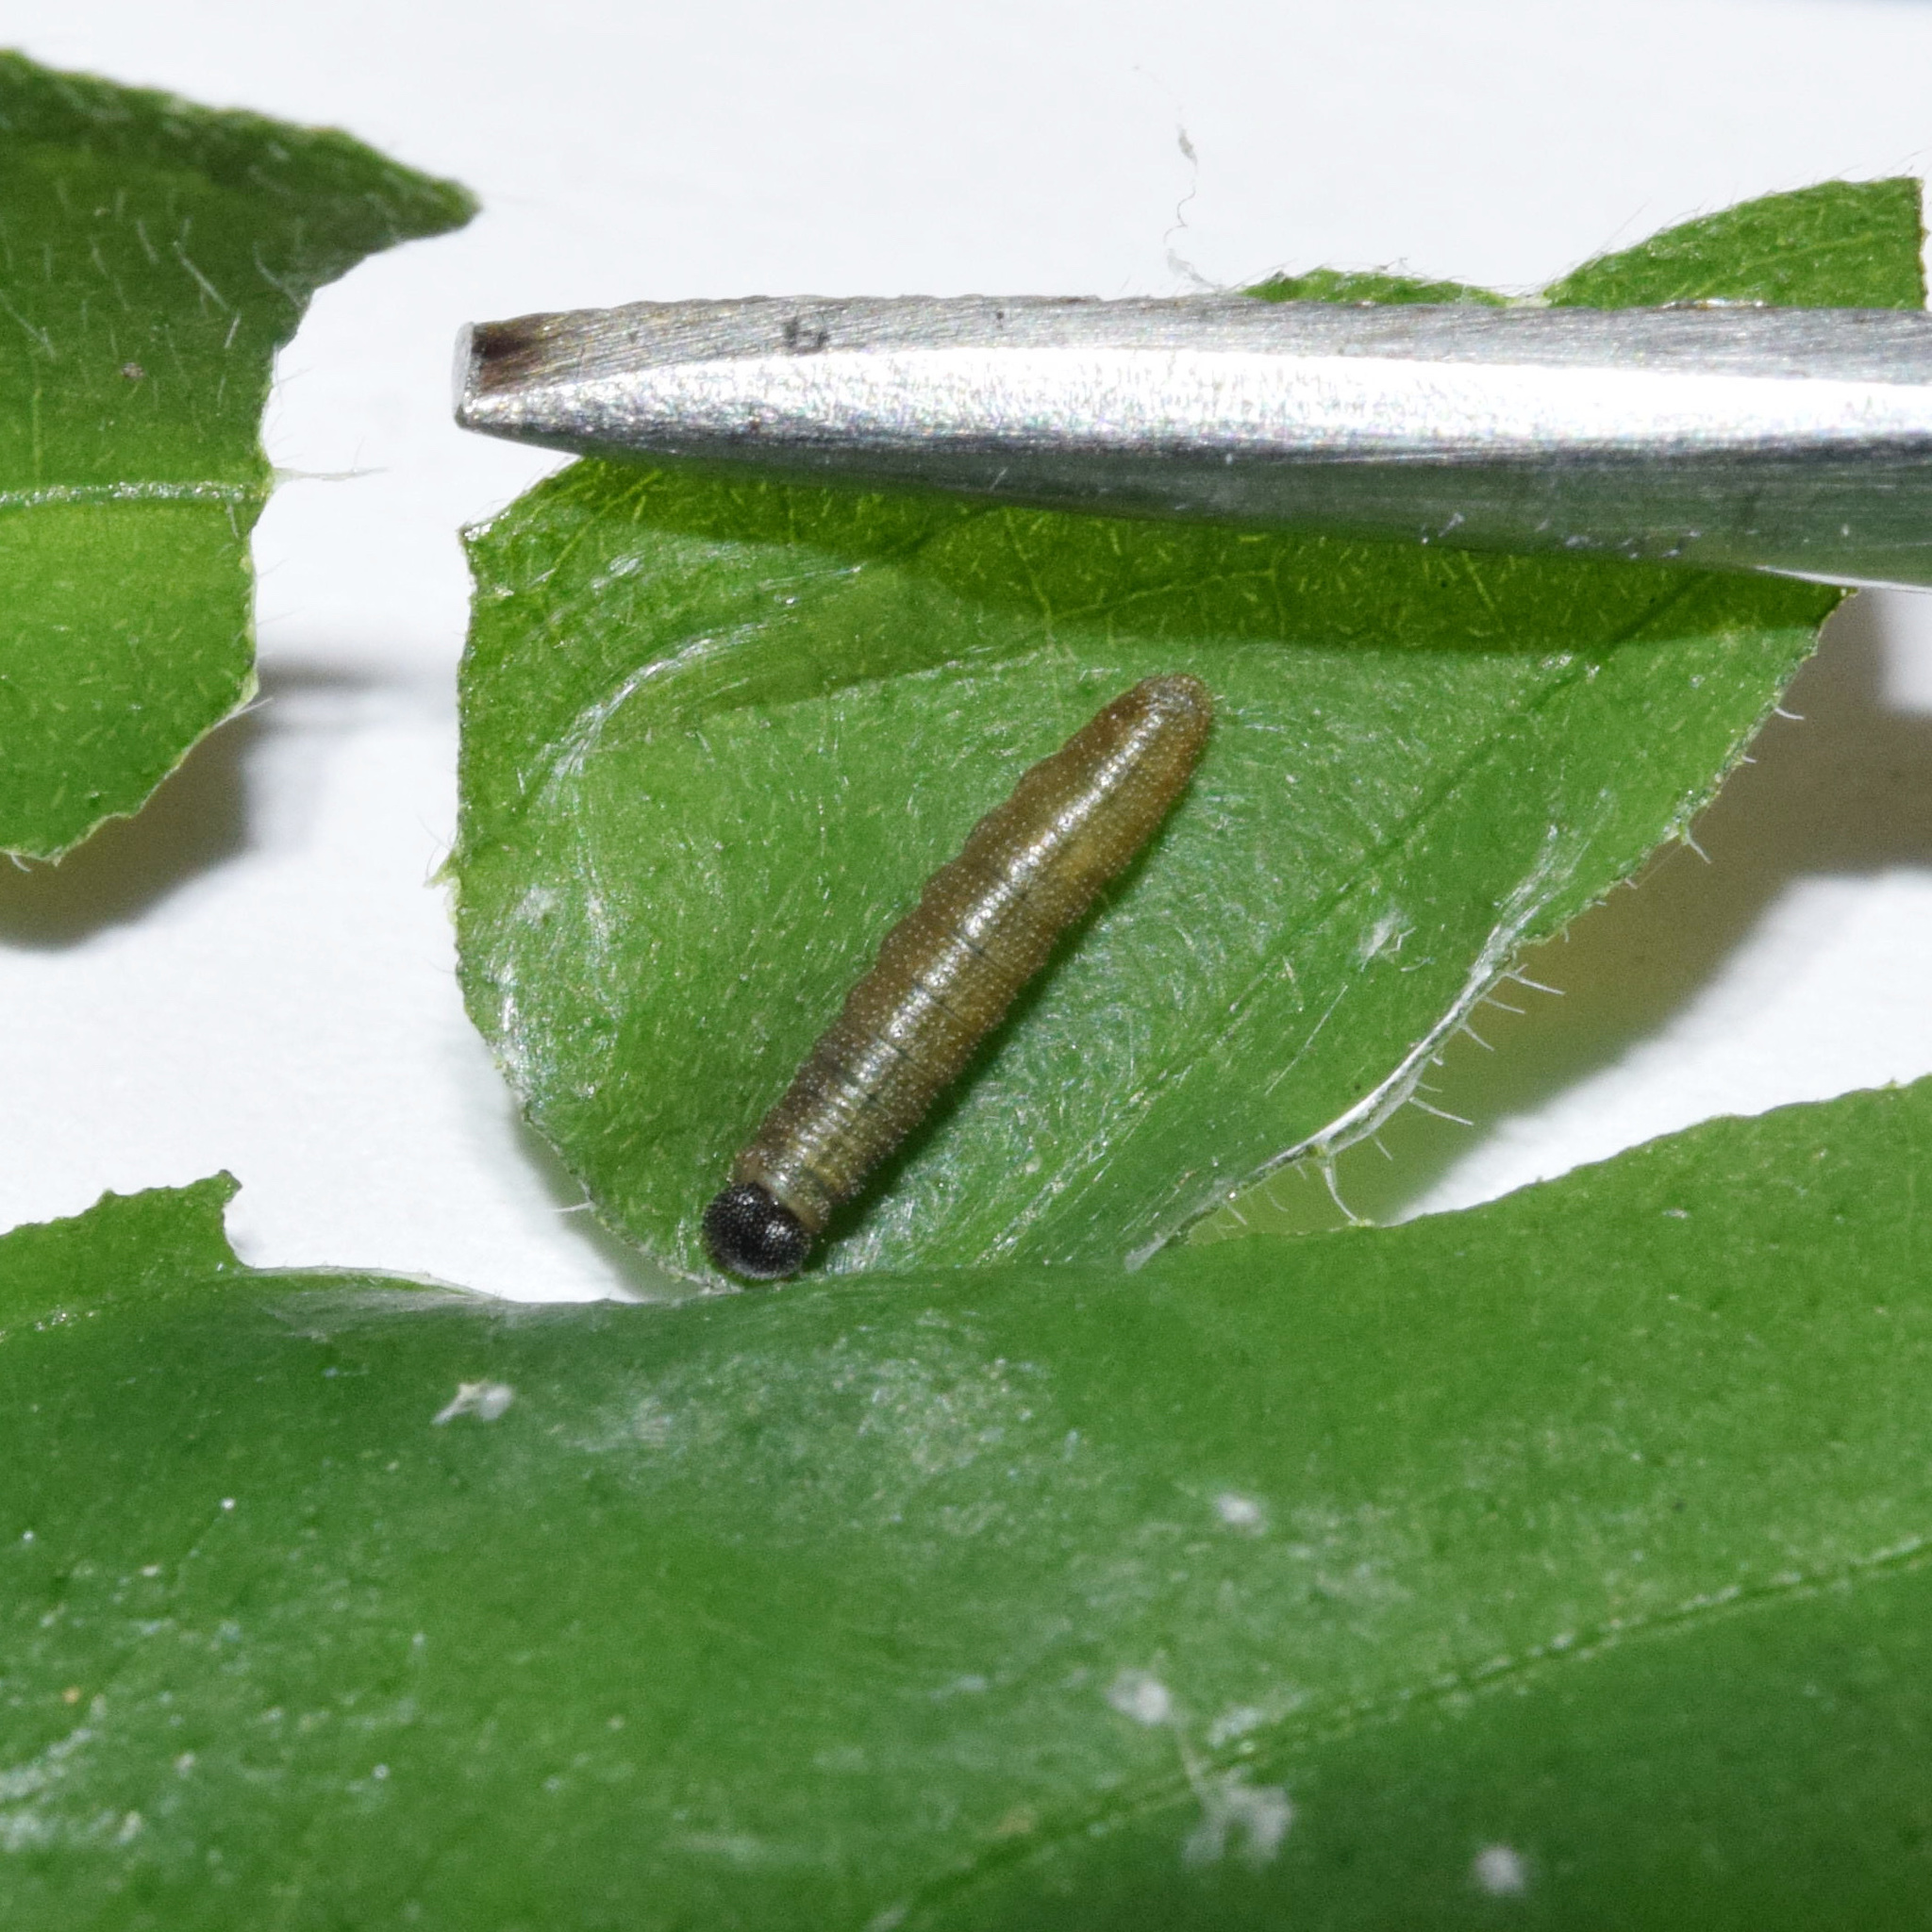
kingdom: Animalia
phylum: Arthropoda
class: Insecta
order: Lepidoptera
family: Hesperiidae
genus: Sarangesa
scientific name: Sarangesa motozi
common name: Forest elfin
